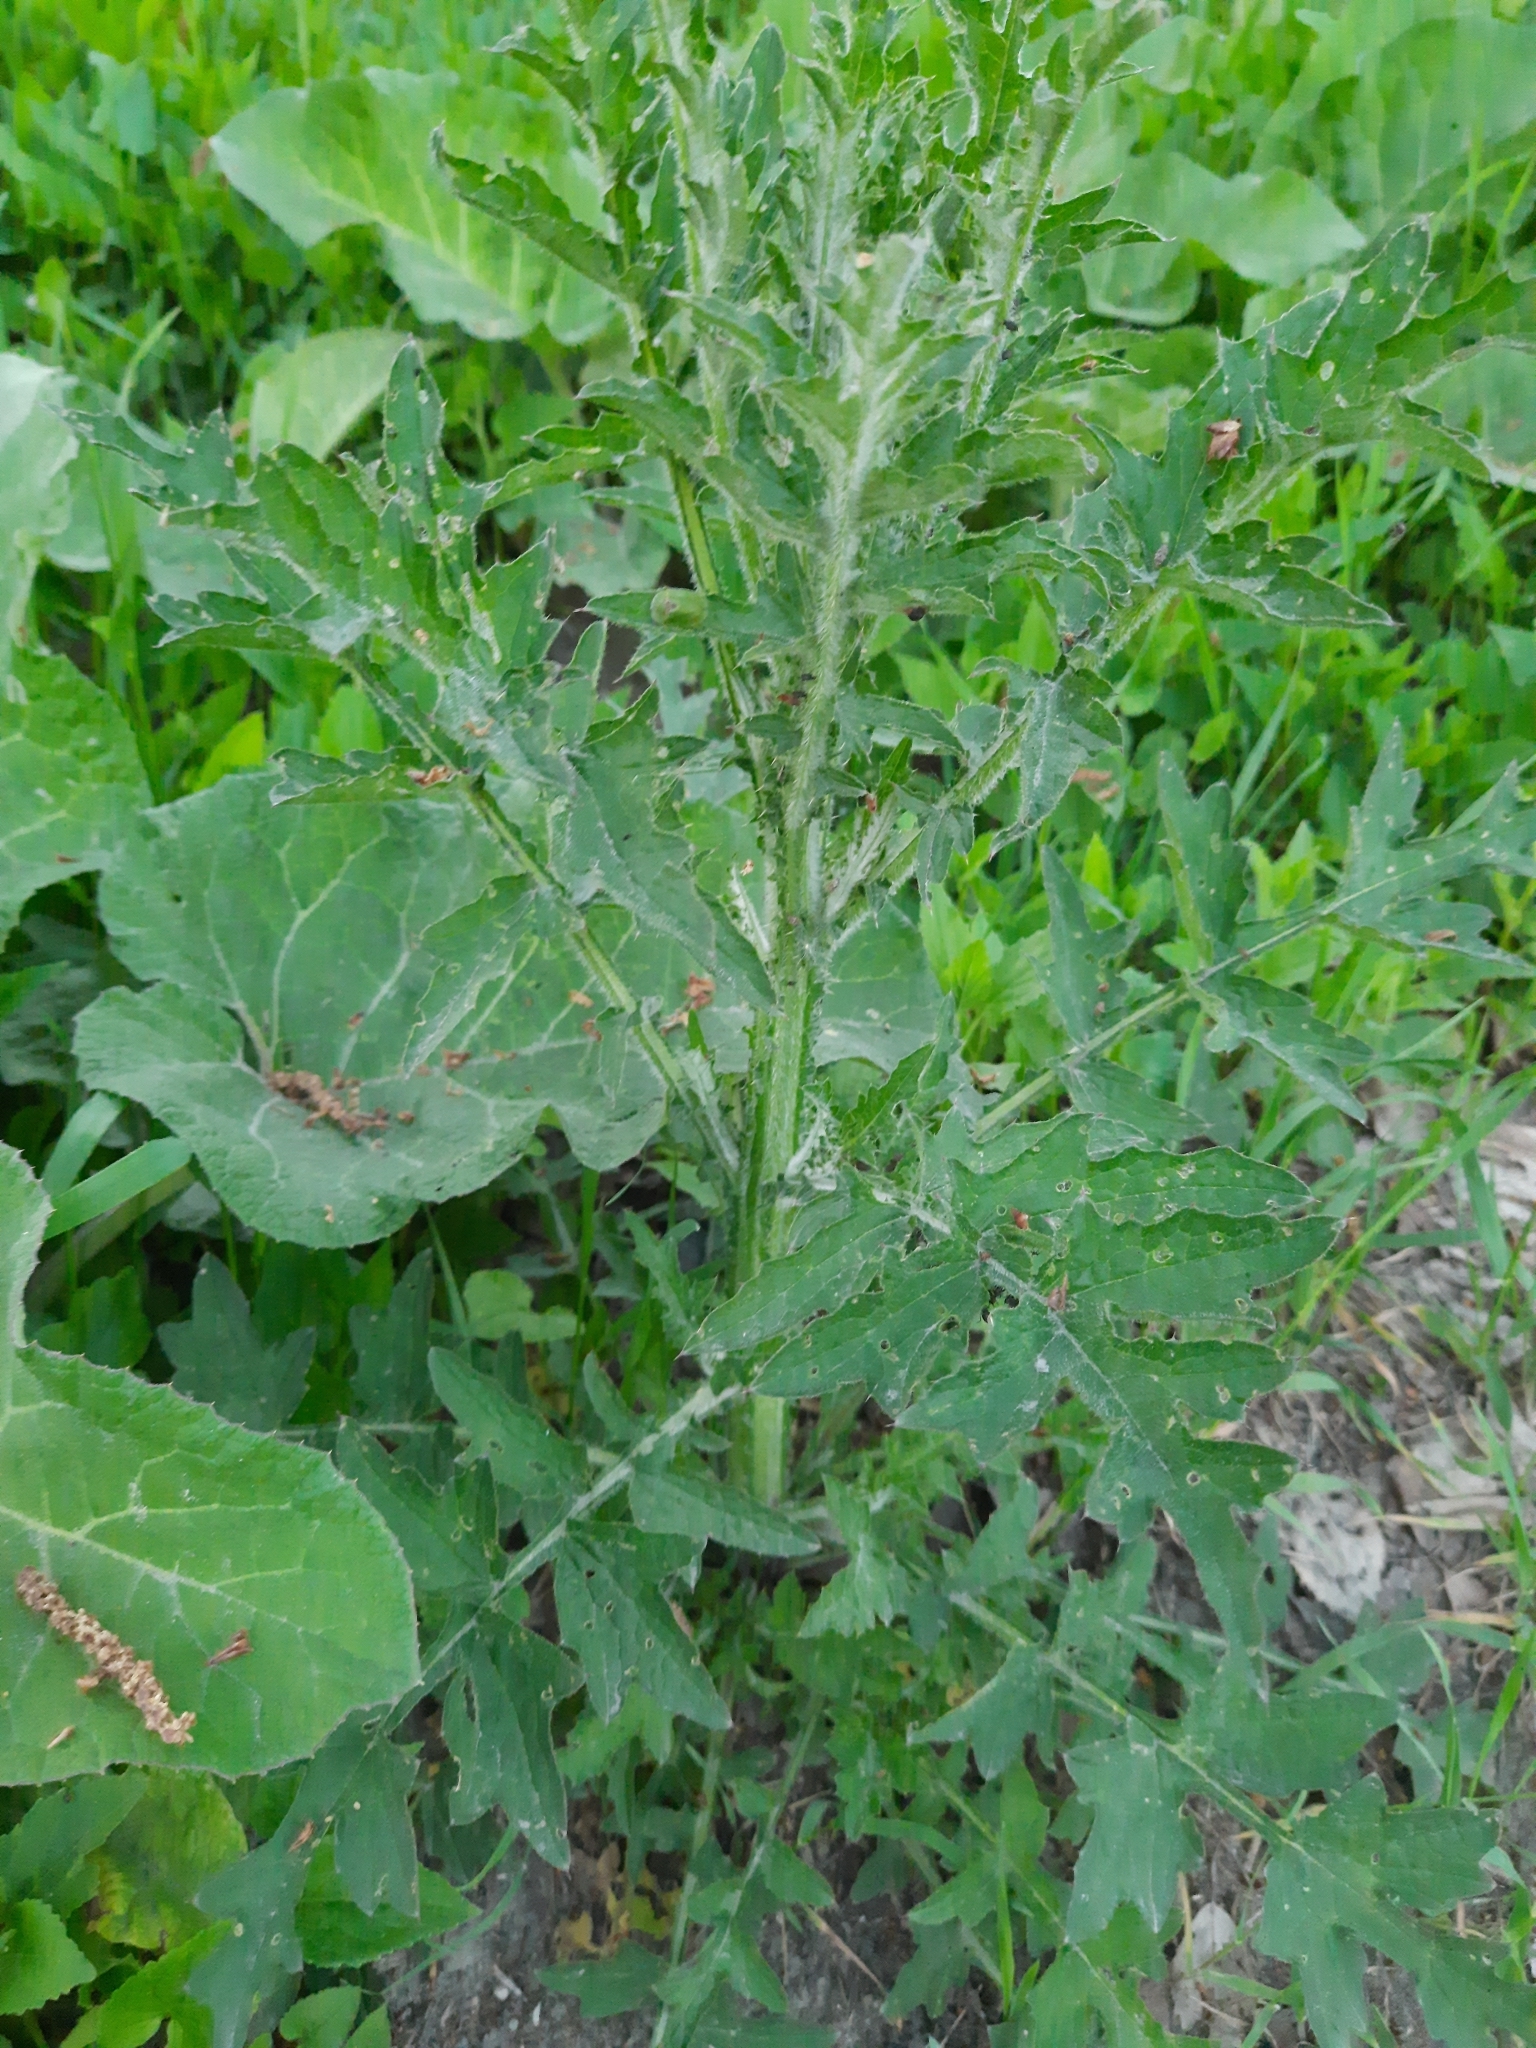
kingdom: Plantae
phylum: Tracheophyta
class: Magnoliopsida
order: Asterales
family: Asteraceae
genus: Carduus
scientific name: Carduus crispus
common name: Welted thistle
